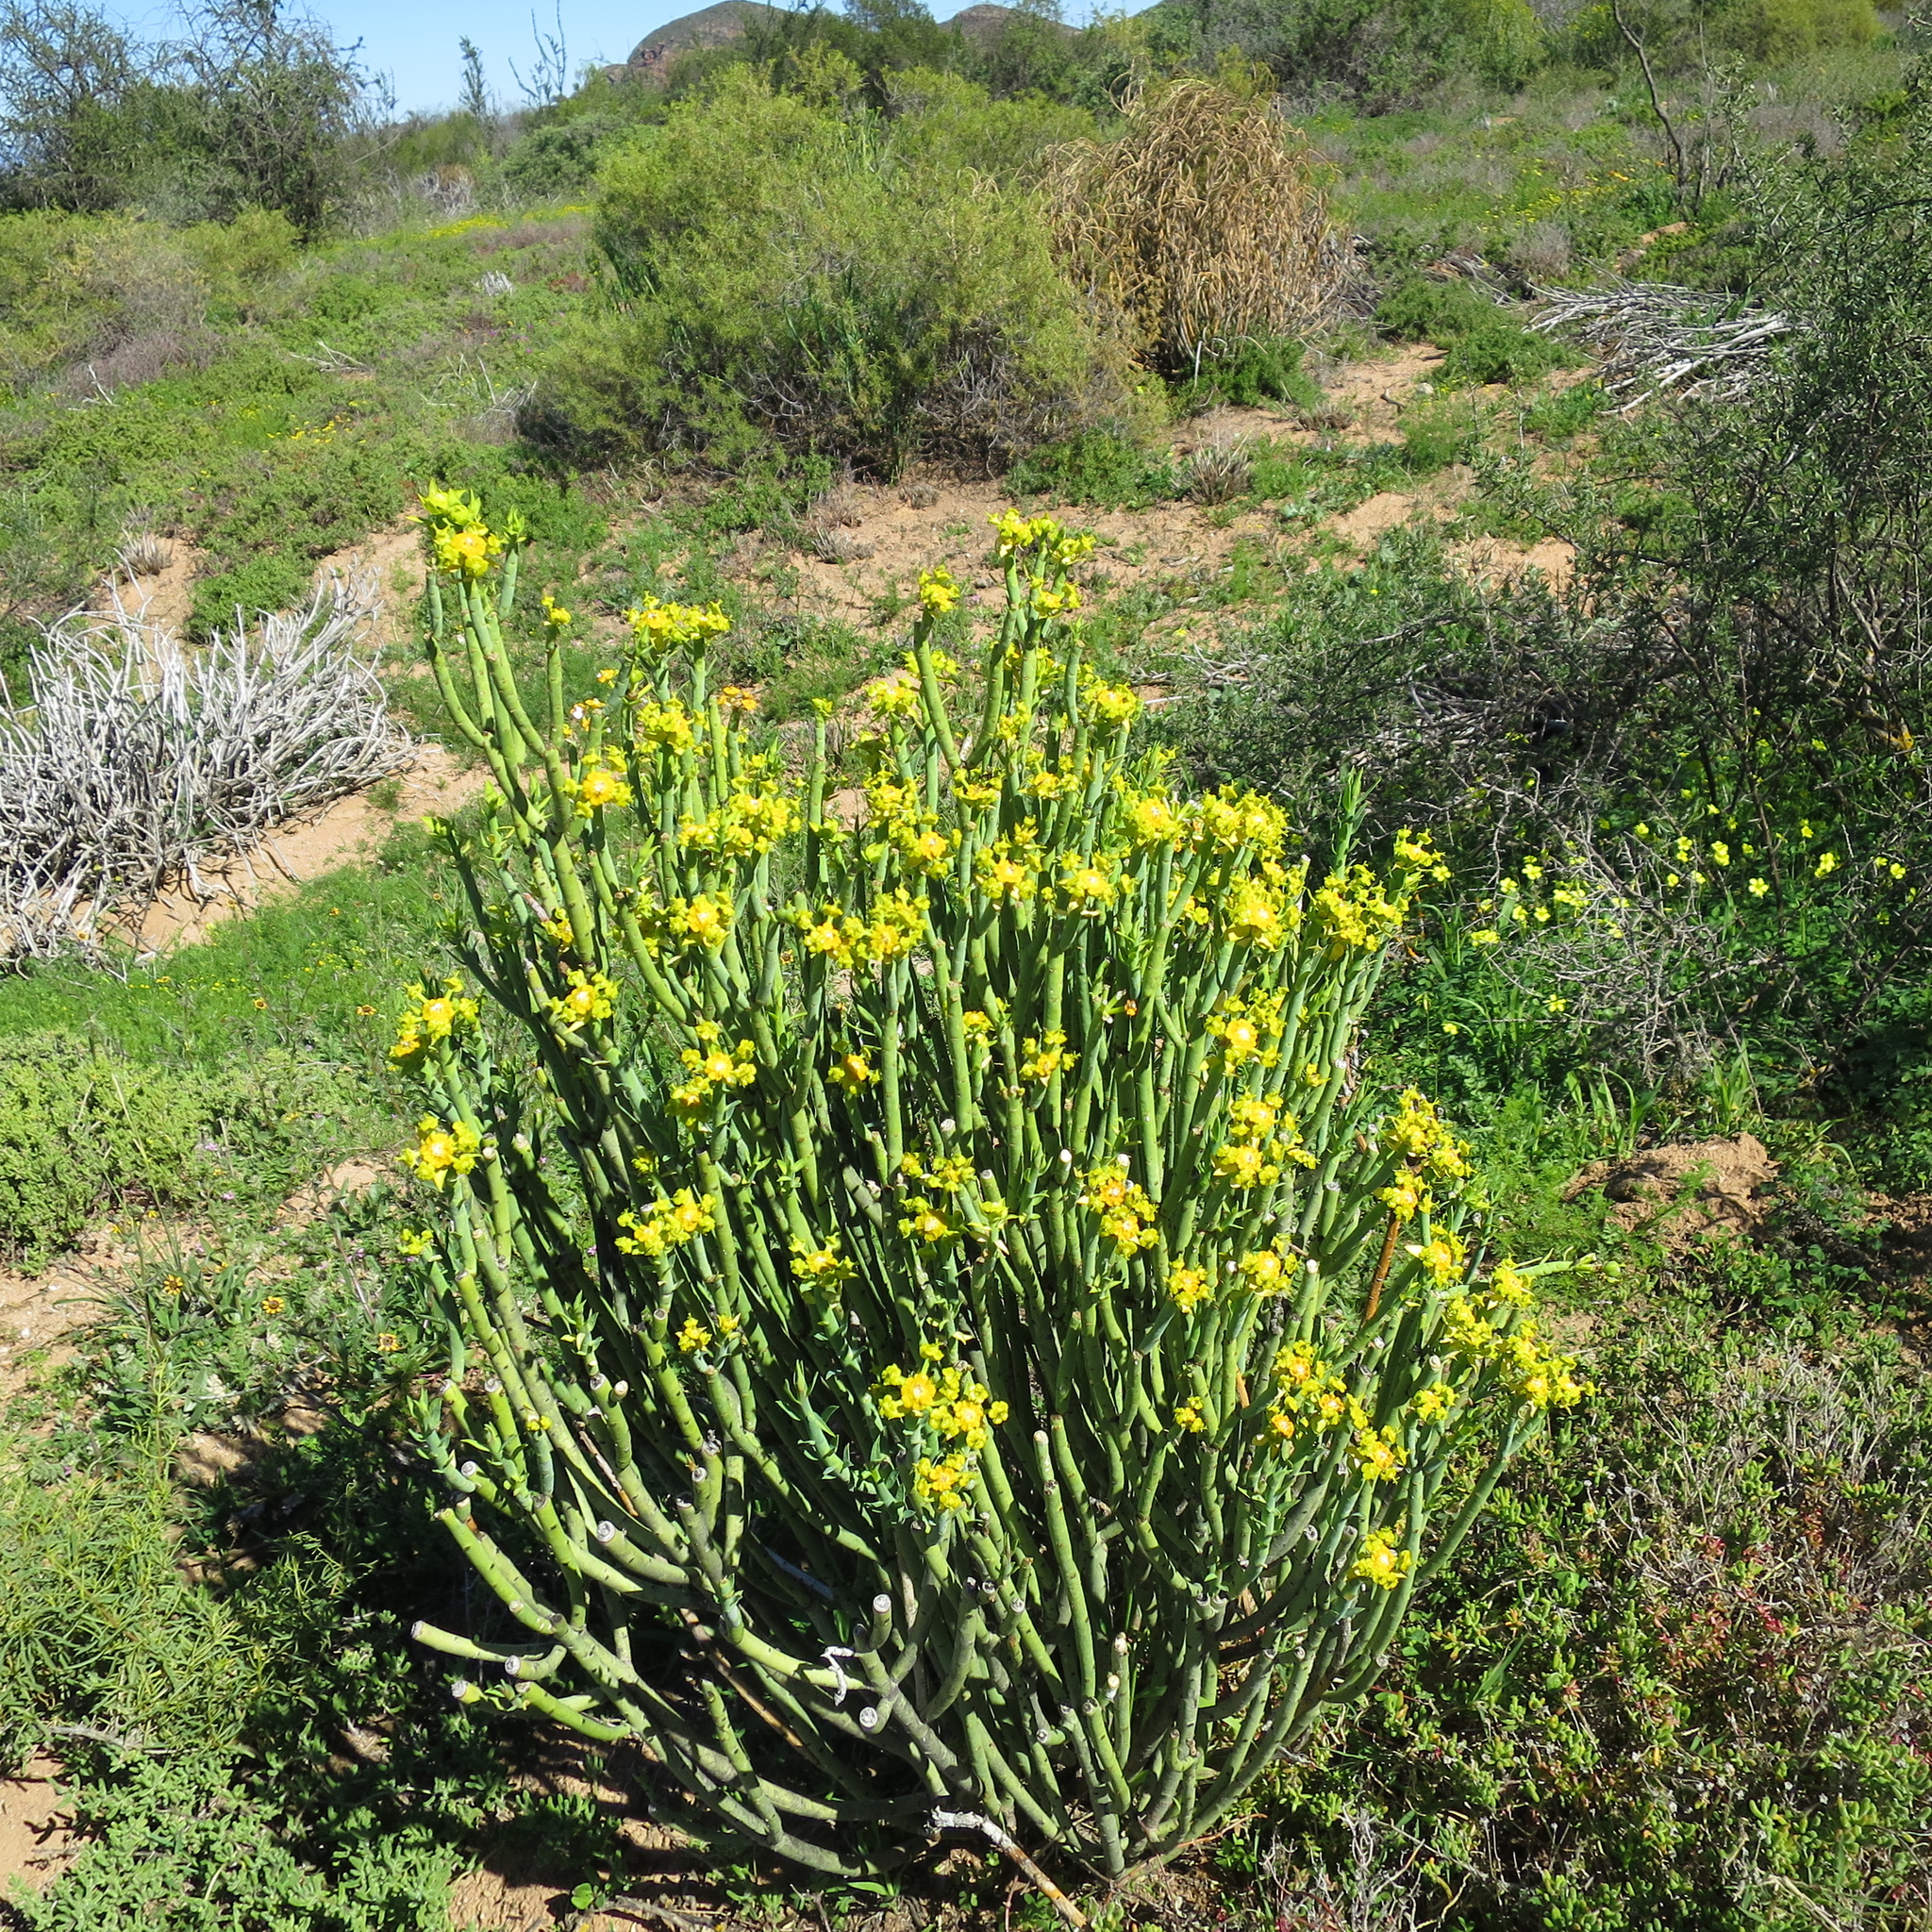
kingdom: Plantae
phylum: Tracheophyta
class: Magnoliopsida
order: Malpighiales
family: Euphorbiaceae
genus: Euphorbia
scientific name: Euphorbia mauritanica
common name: Jackal's-food
